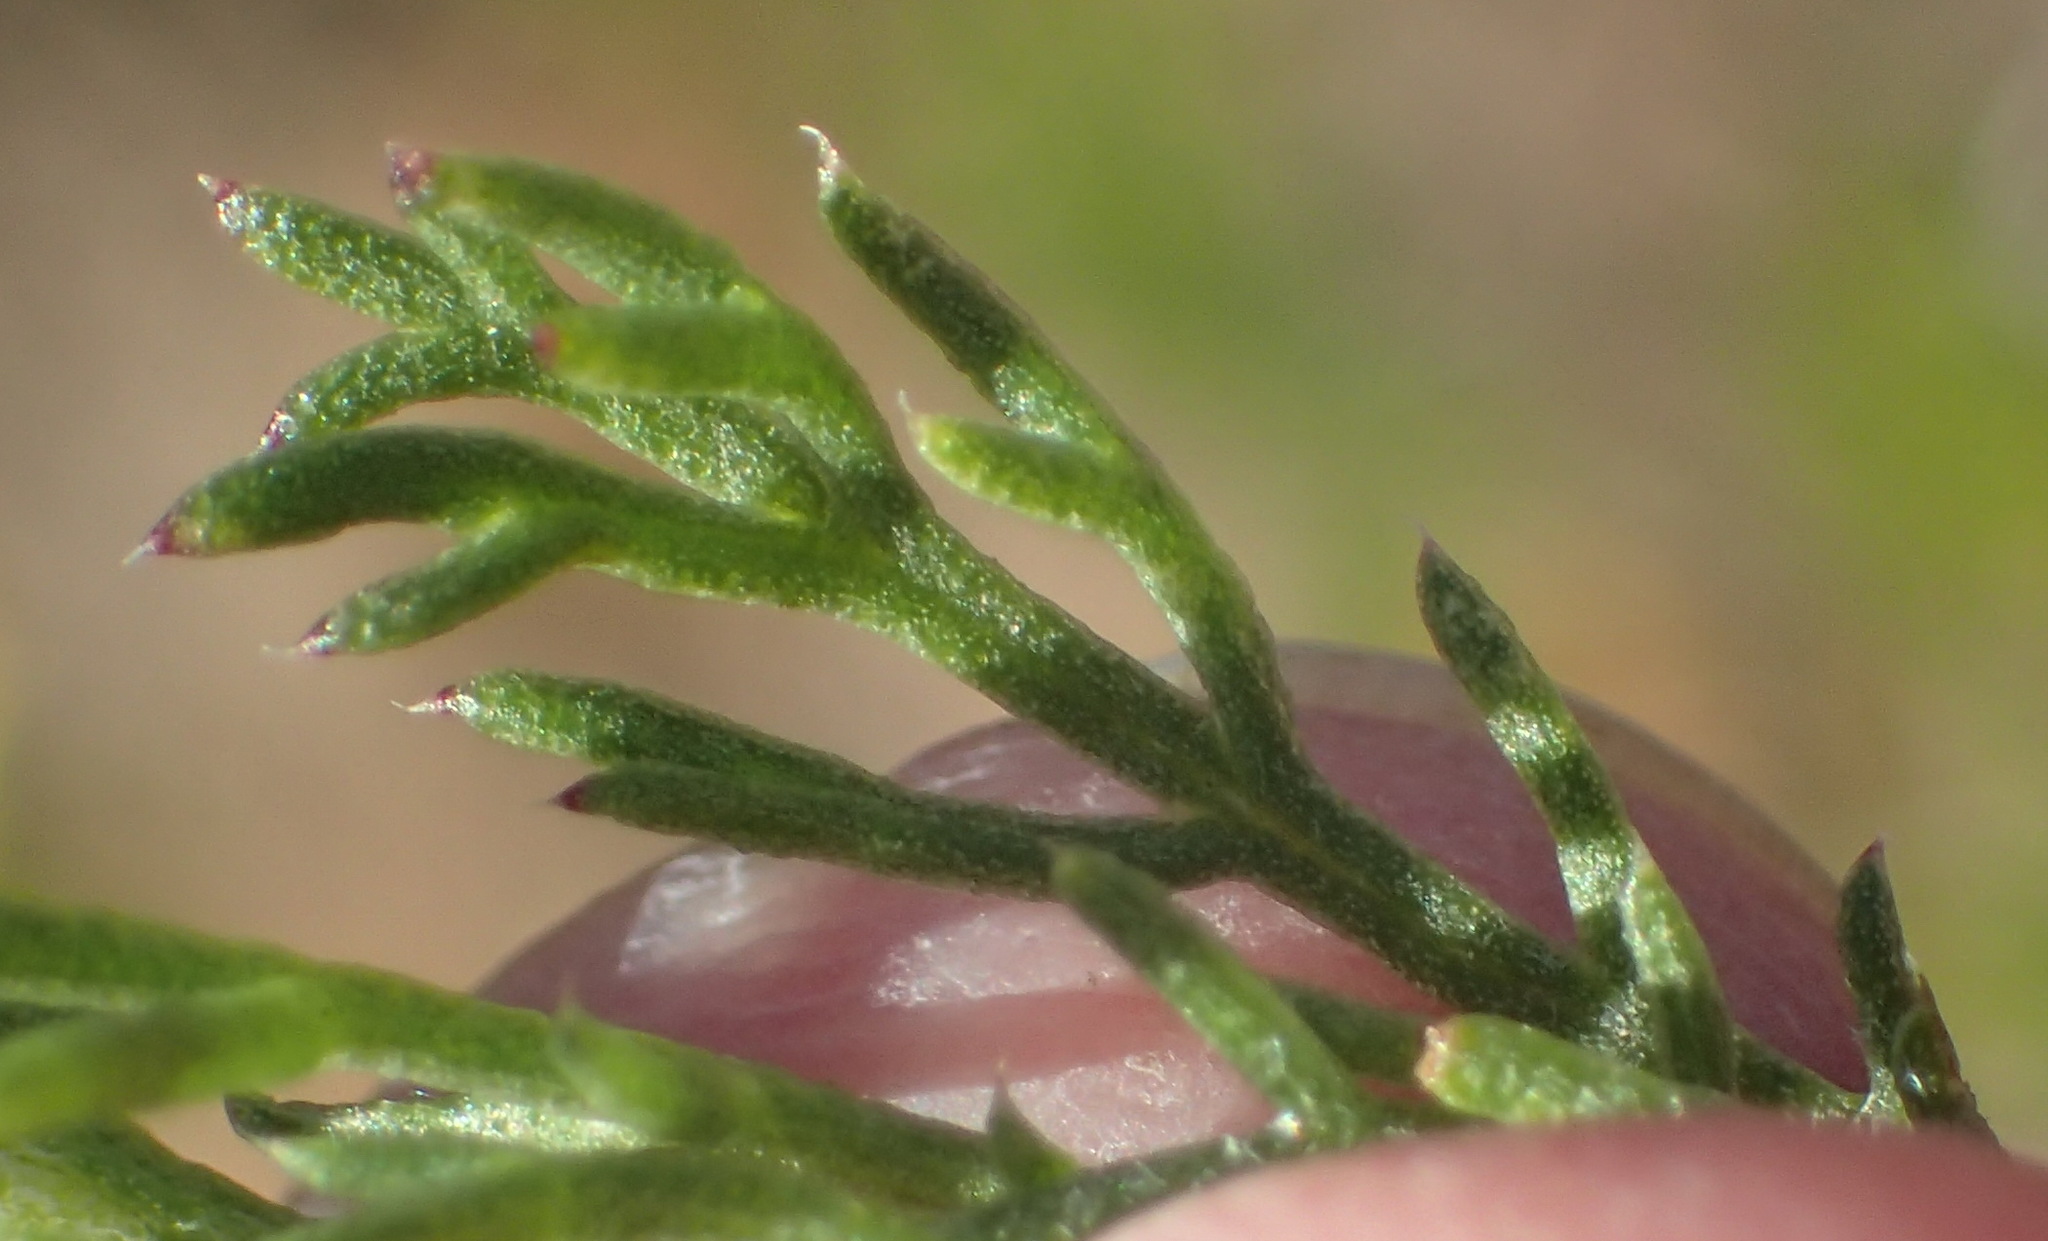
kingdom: Plantae
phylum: Tracheophyta
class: Magnoliopsida
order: Asterales
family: Asteraceae
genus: Ursinia
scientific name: Ursinia anethoides
